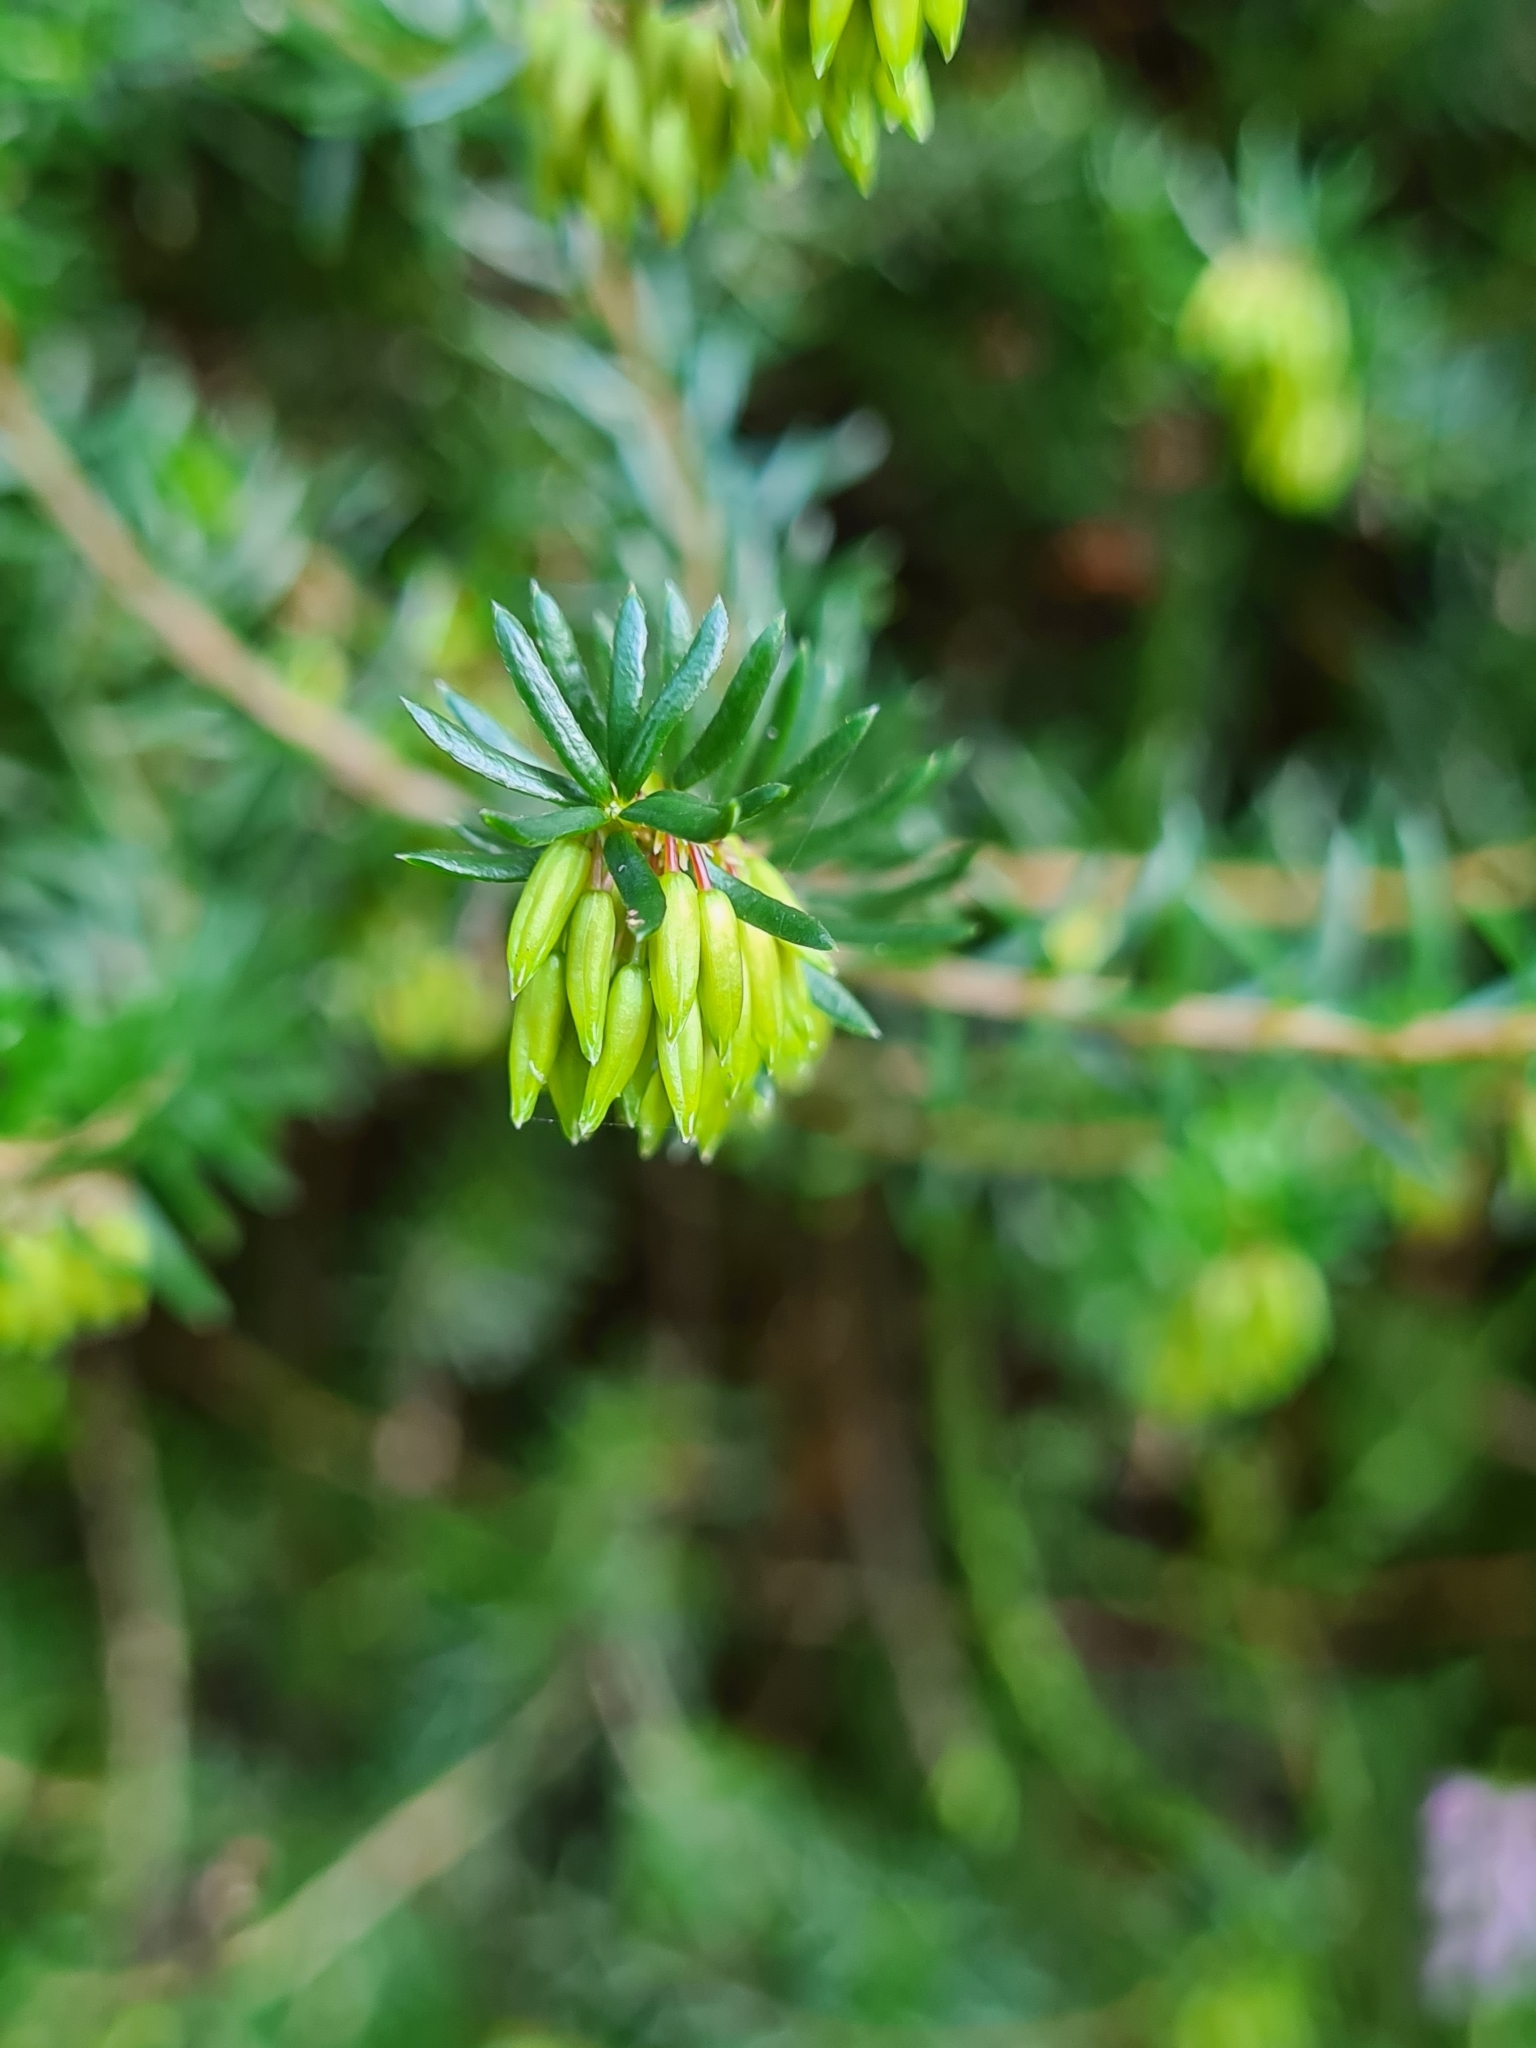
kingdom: Plantae
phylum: Tracheophyta
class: Magnoliopsida
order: Ericales
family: Ericaceae
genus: Erica
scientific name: Erica carnea
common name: Winter heath
